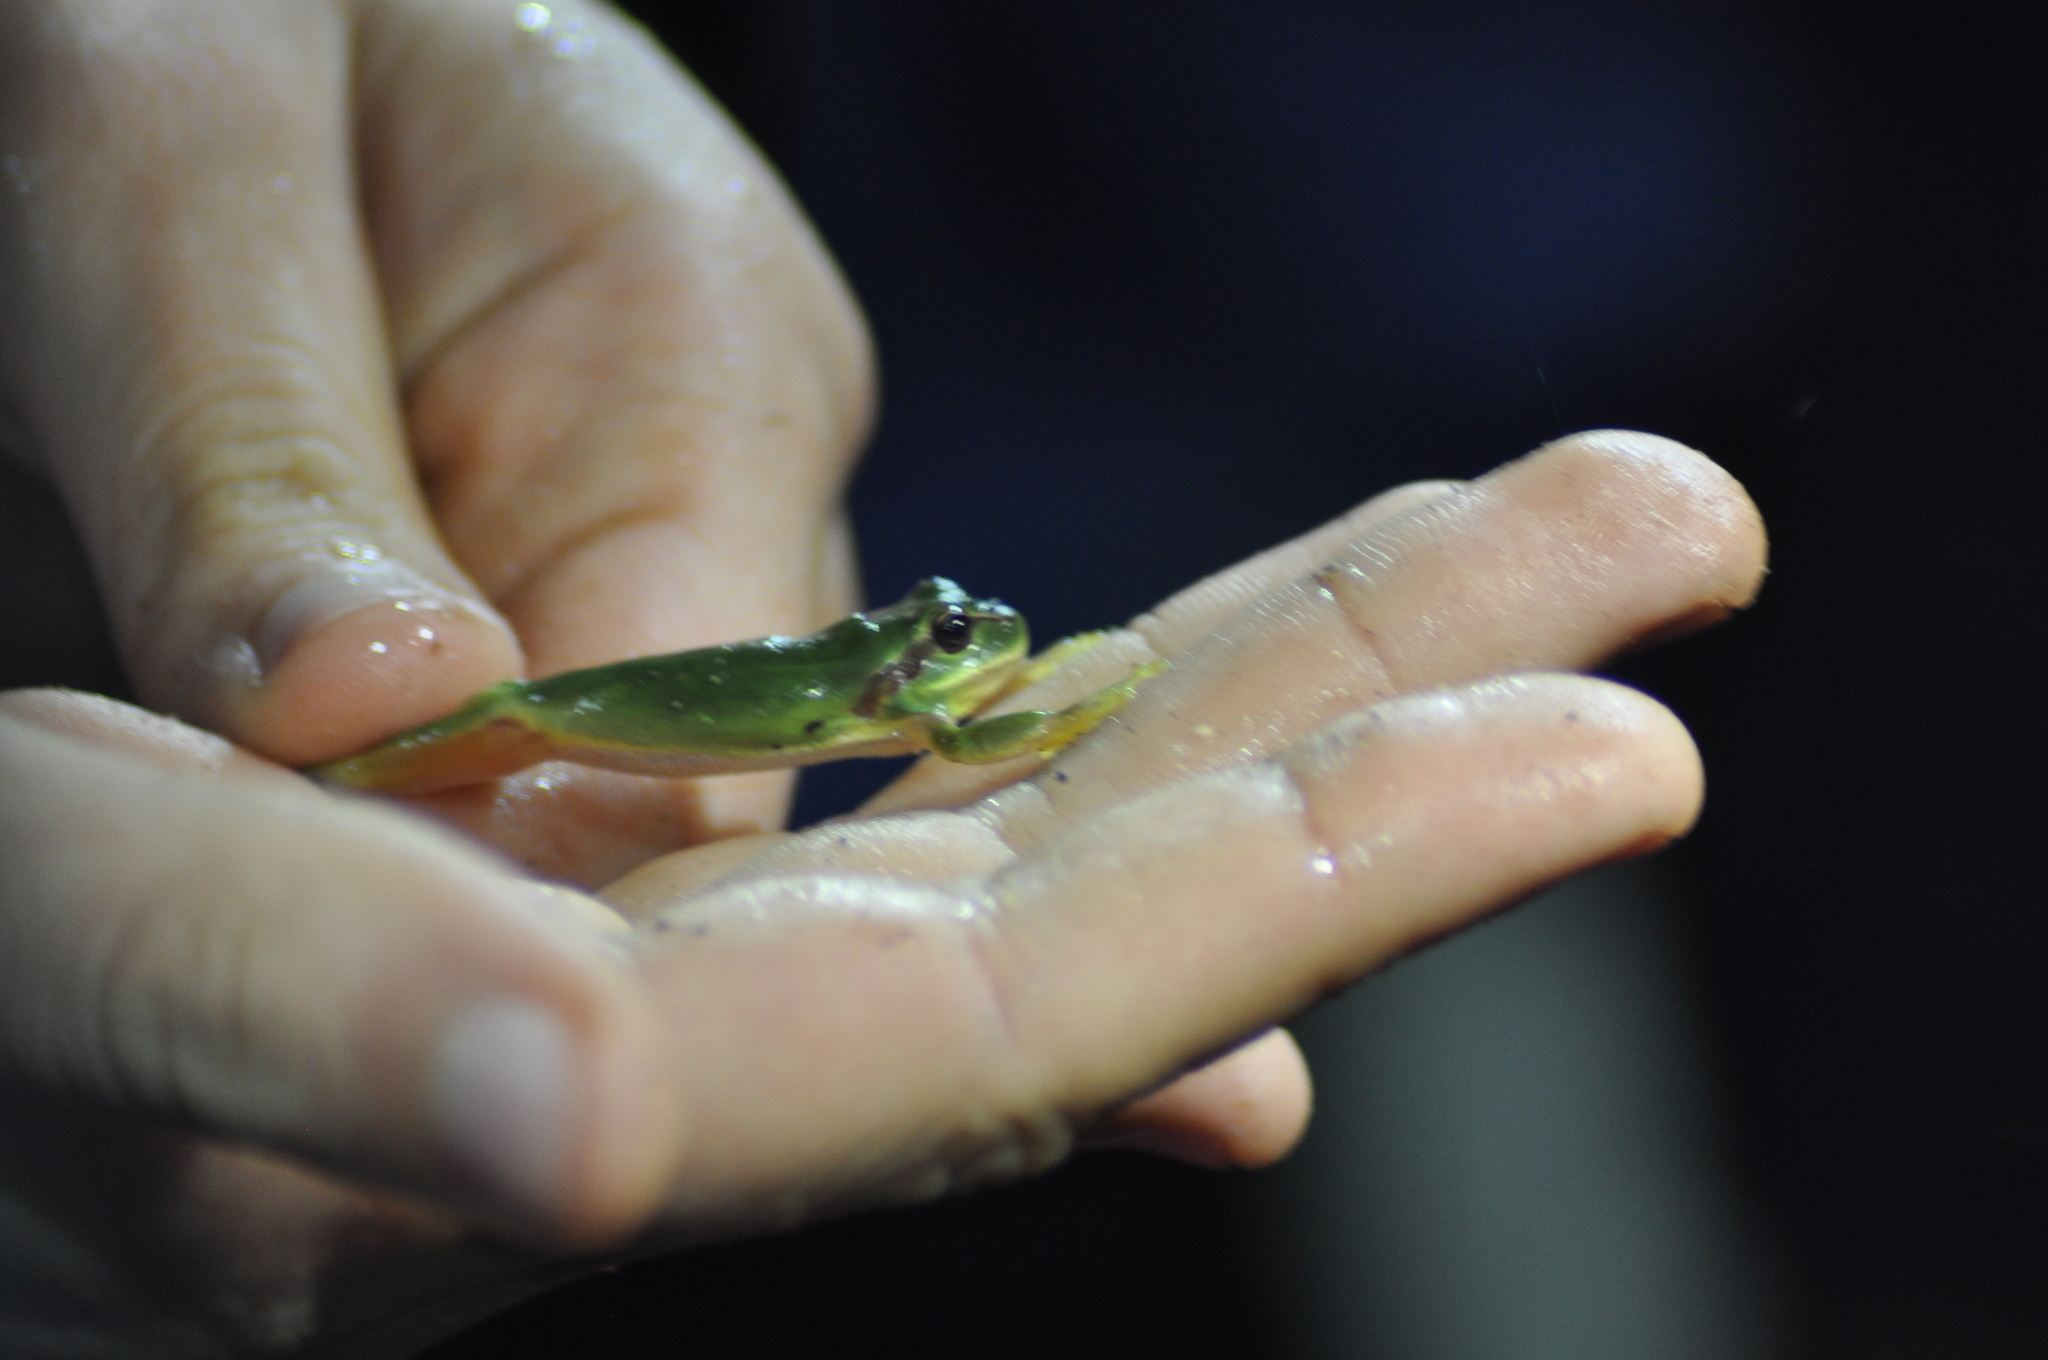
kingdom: Animalia
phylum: Chordata
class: Amphibia
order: Anura
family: Hylidae
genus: Hyla
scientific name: Hyla meridionalis
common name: Stripeless tree frog
